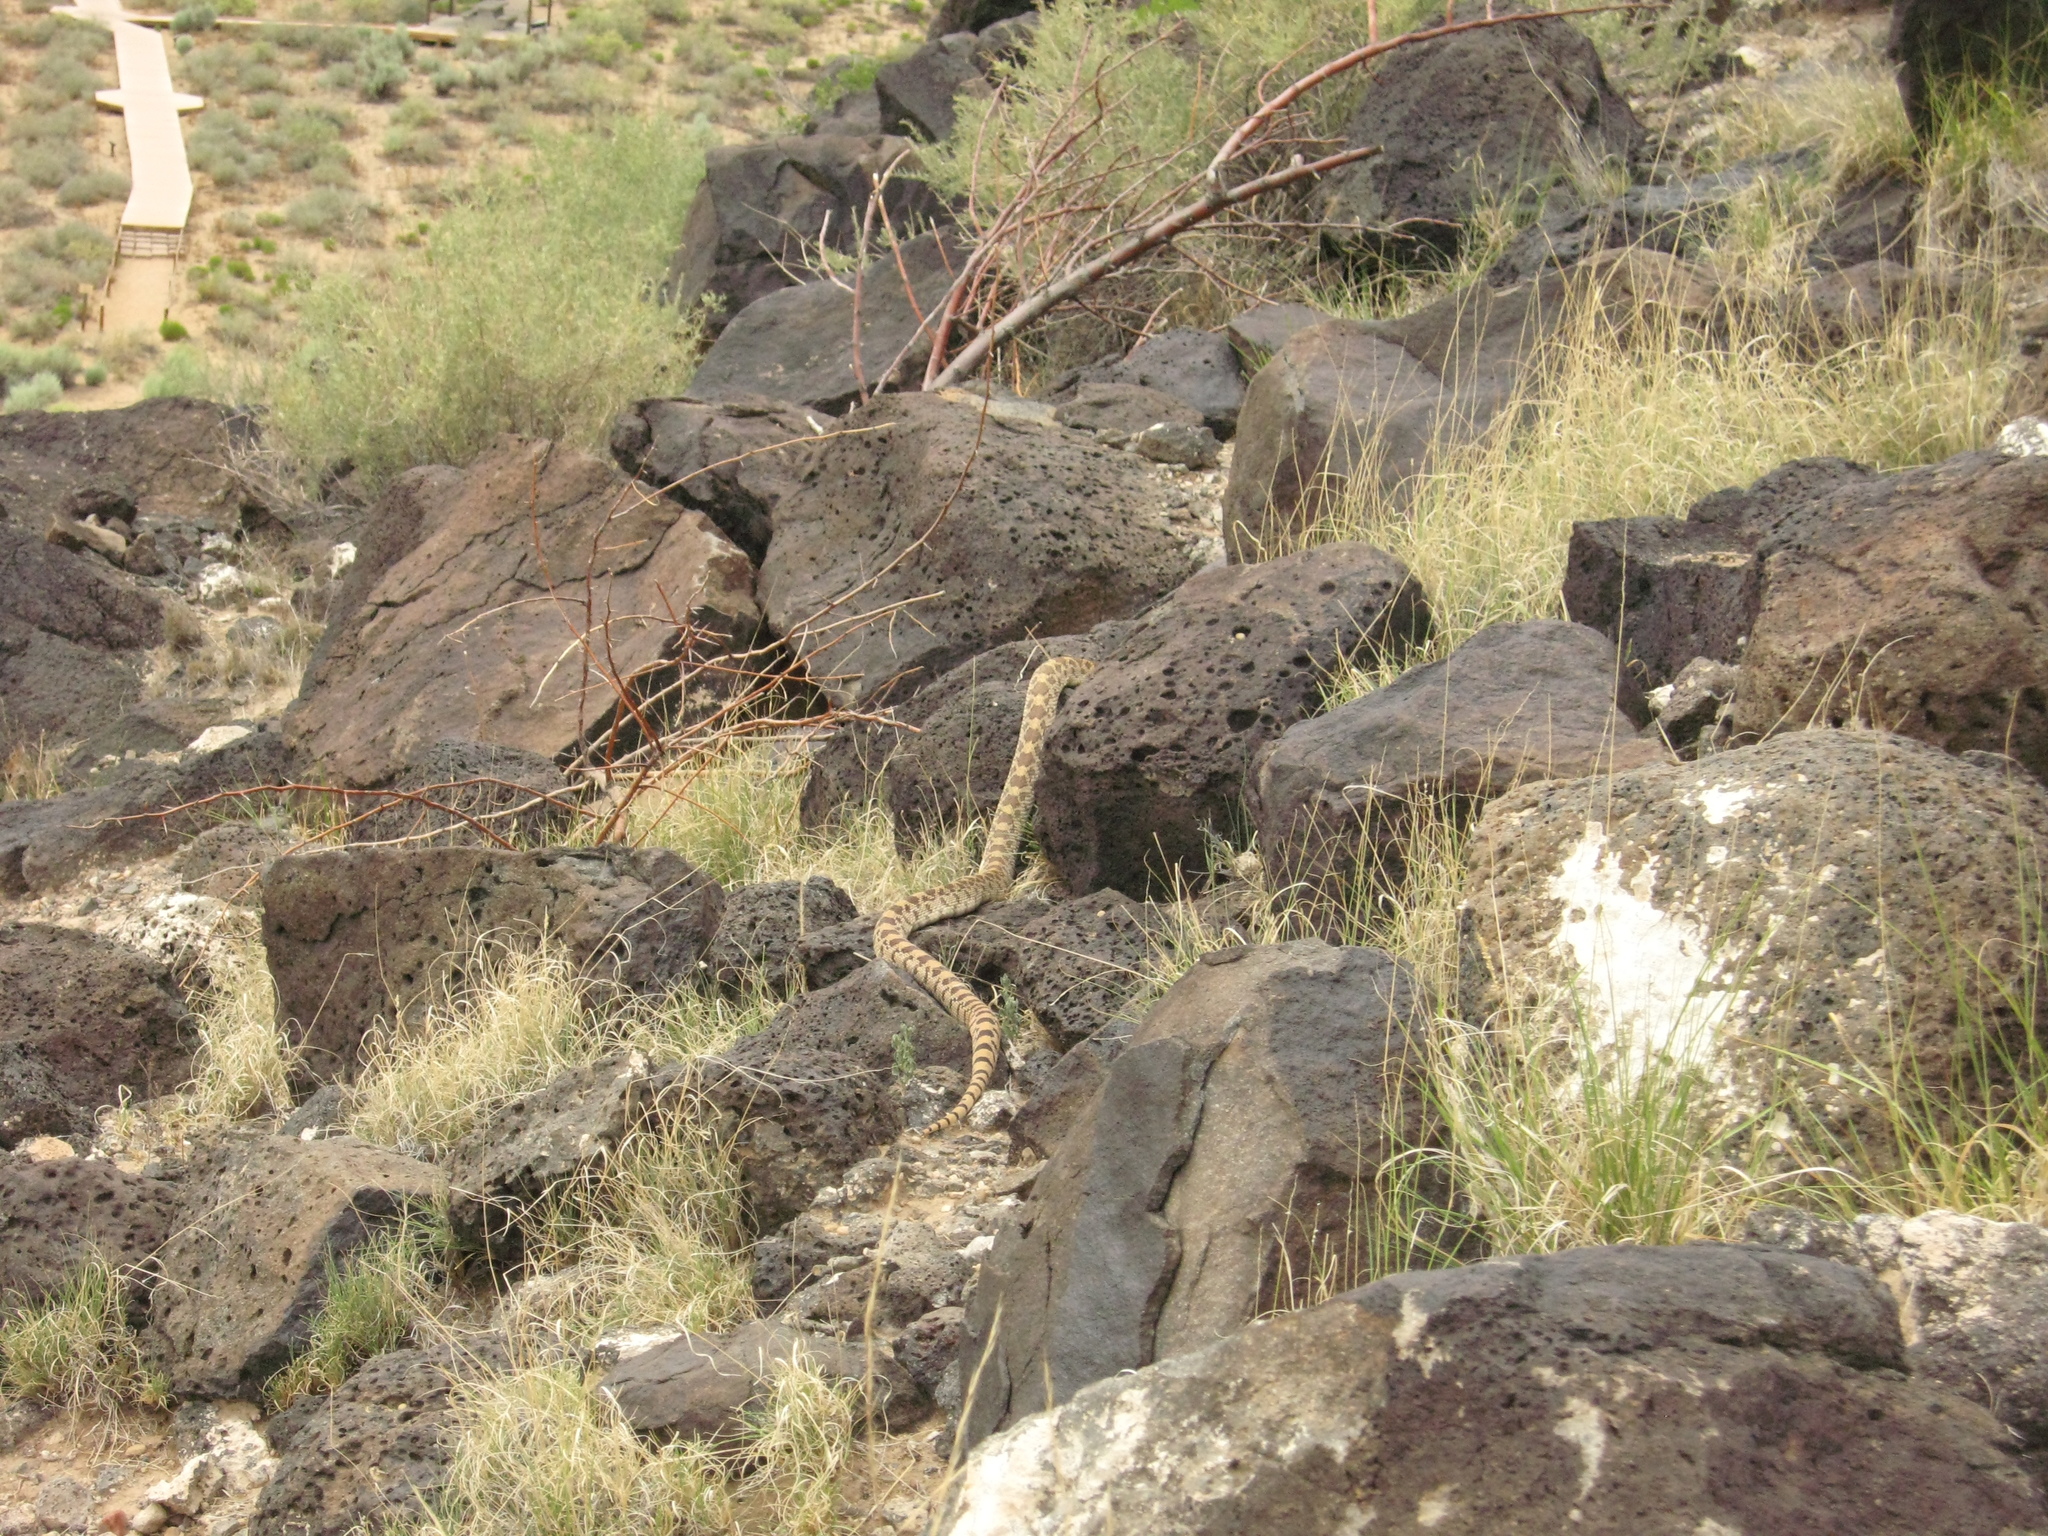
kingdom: Animalia
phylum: Chordata
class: Squamata
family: Colubridae
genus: Pituophis
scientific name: Pituophis catenifer
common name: Gopher snake
